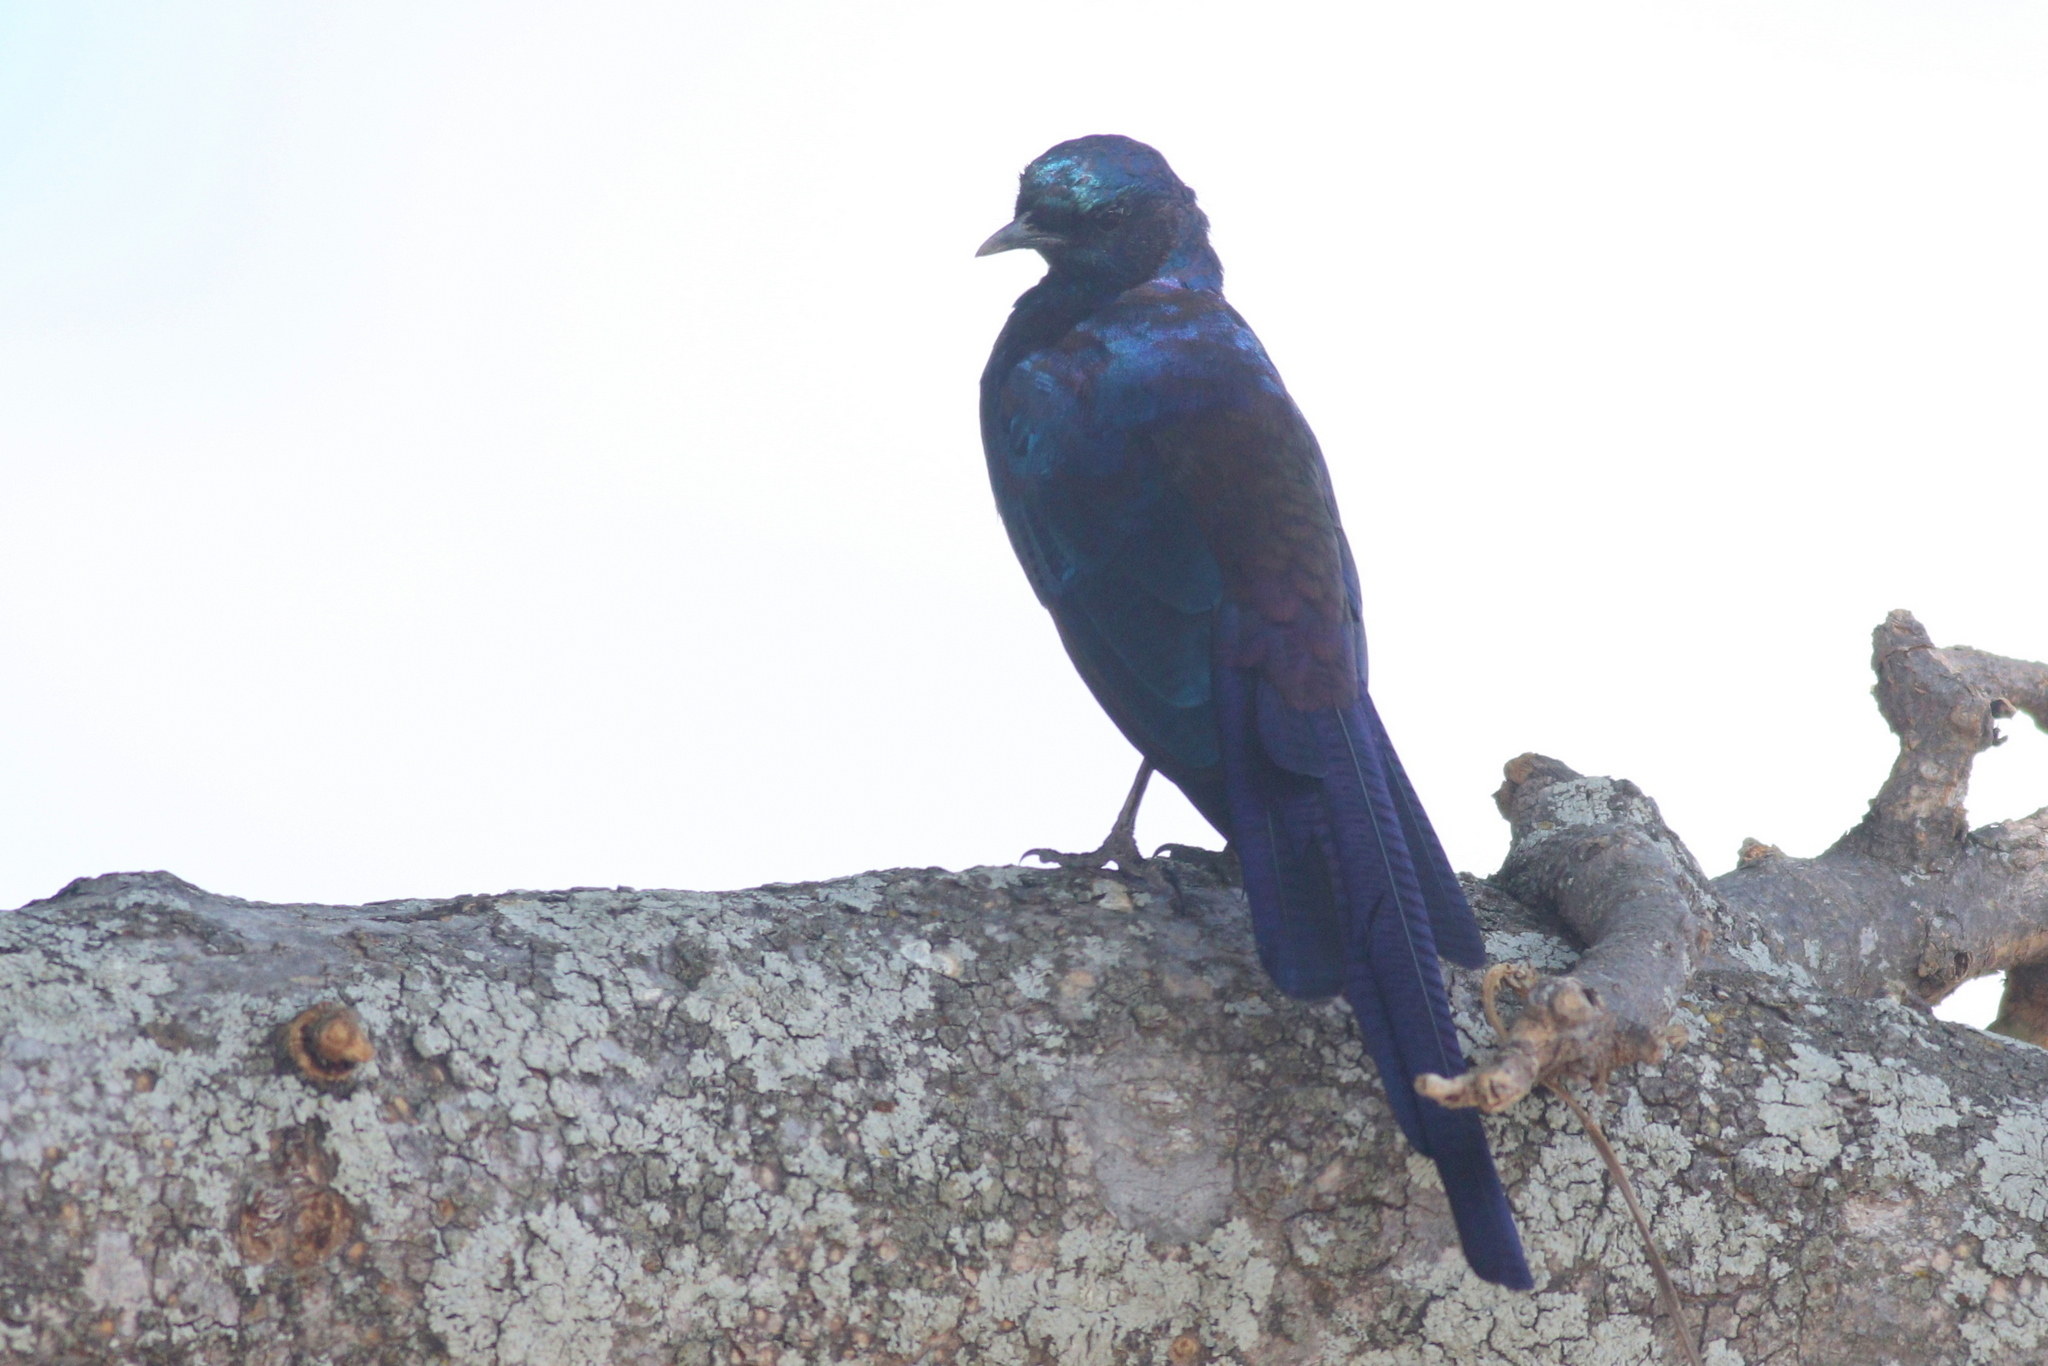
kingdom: Animalia
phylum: Chordata
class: Aves
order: Passeriformes
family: Sturnidae
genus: Lamprotornis
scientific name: Lamprotornis mevesii
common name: Meves's starling
